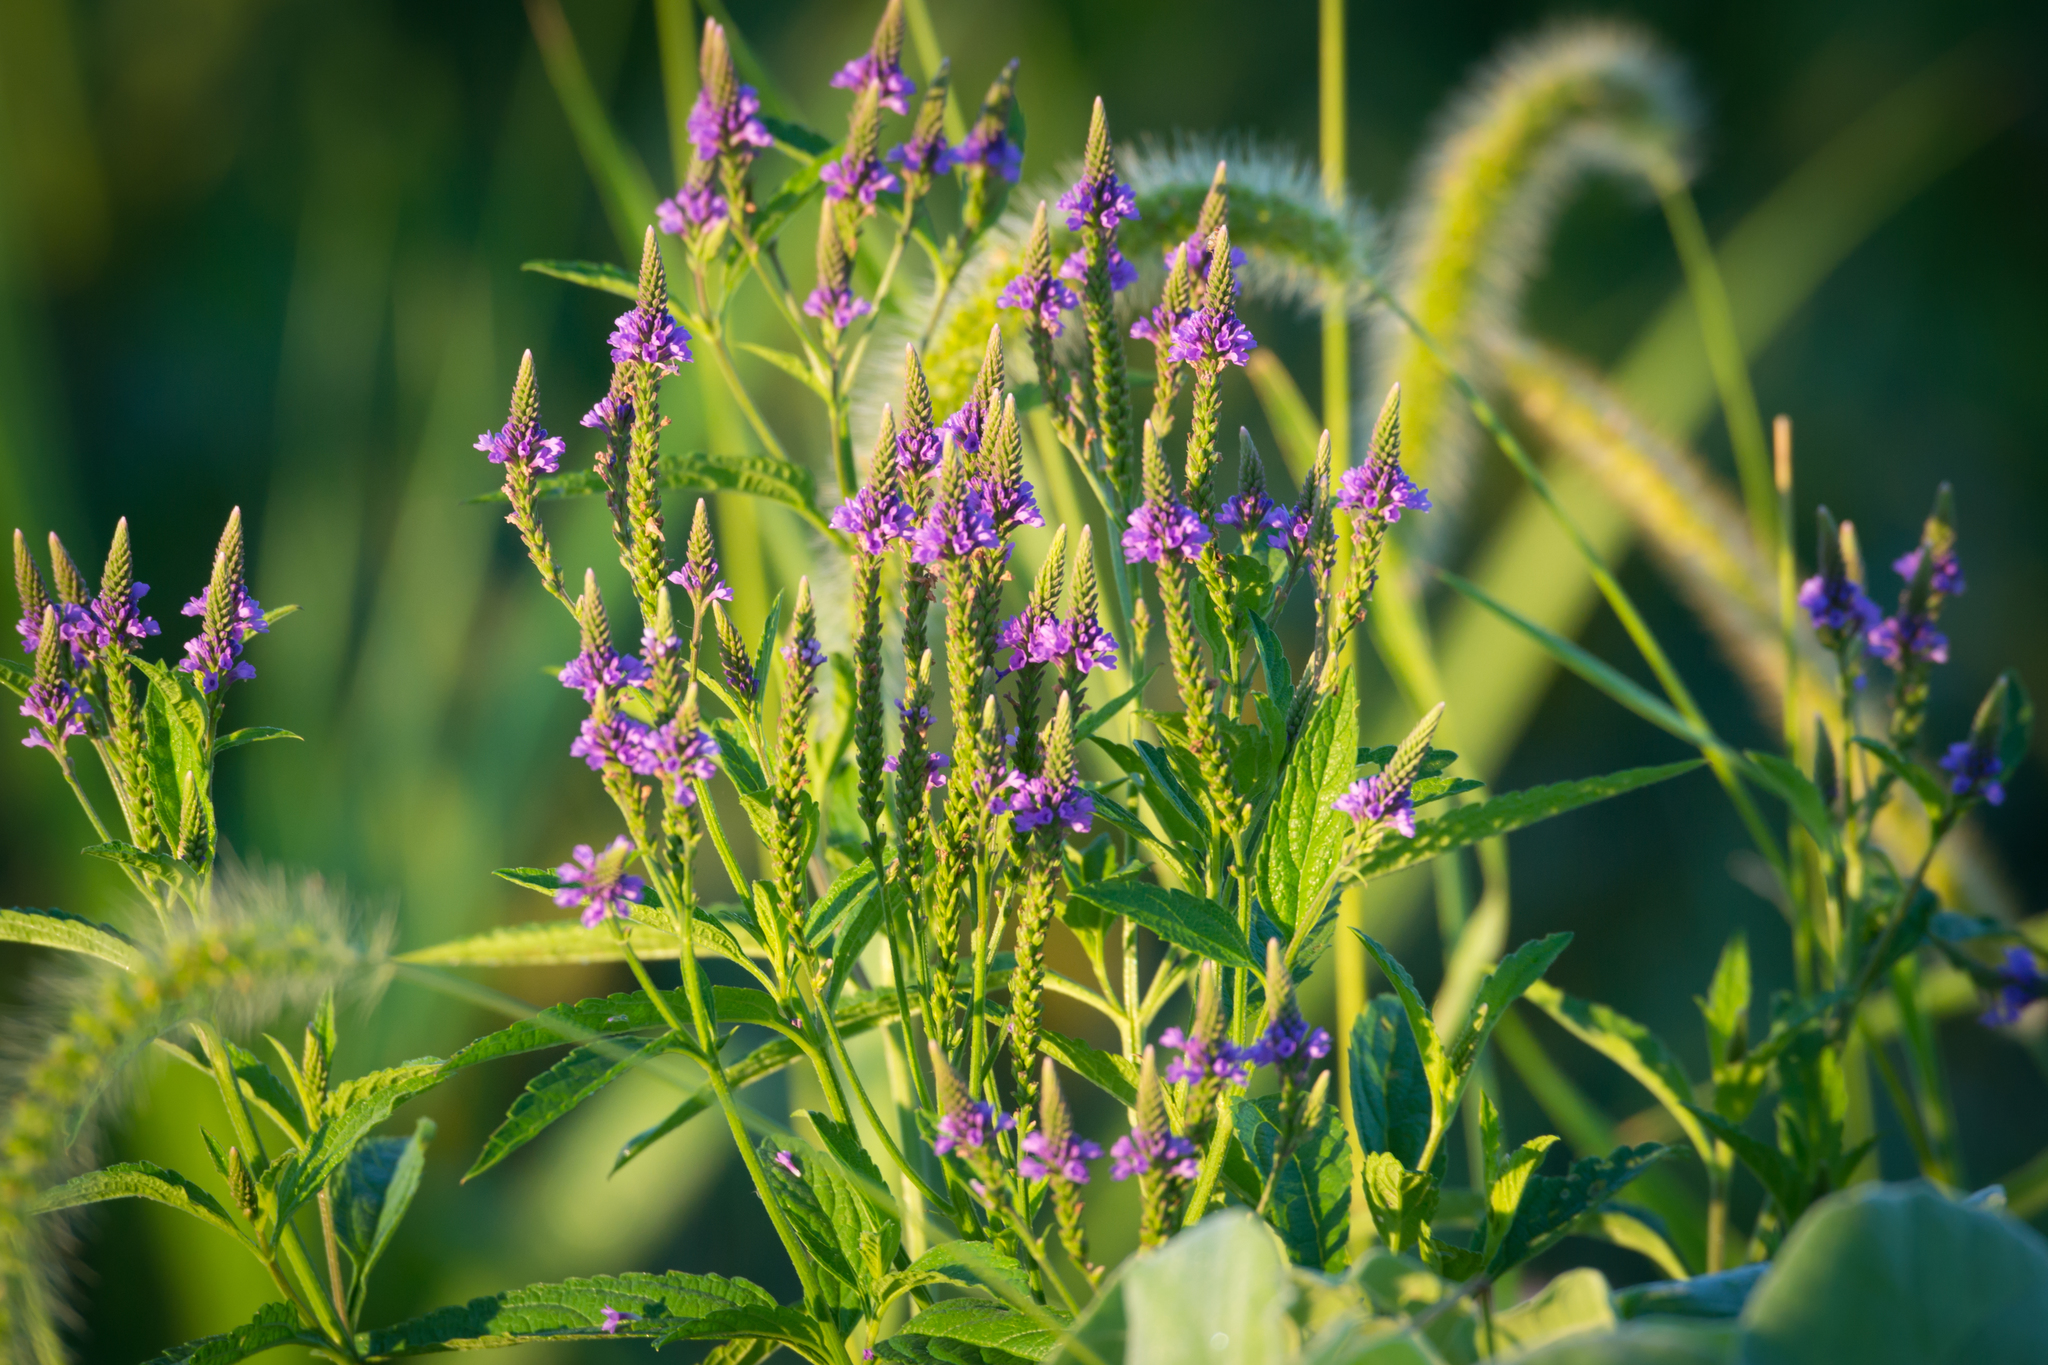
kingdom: Plantae
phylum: Tracheophyta
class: Magnoliopsida
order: Lamiales
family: Verbenaceae
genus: Verbena
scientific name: Verbena hastata
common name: American blue vervain
